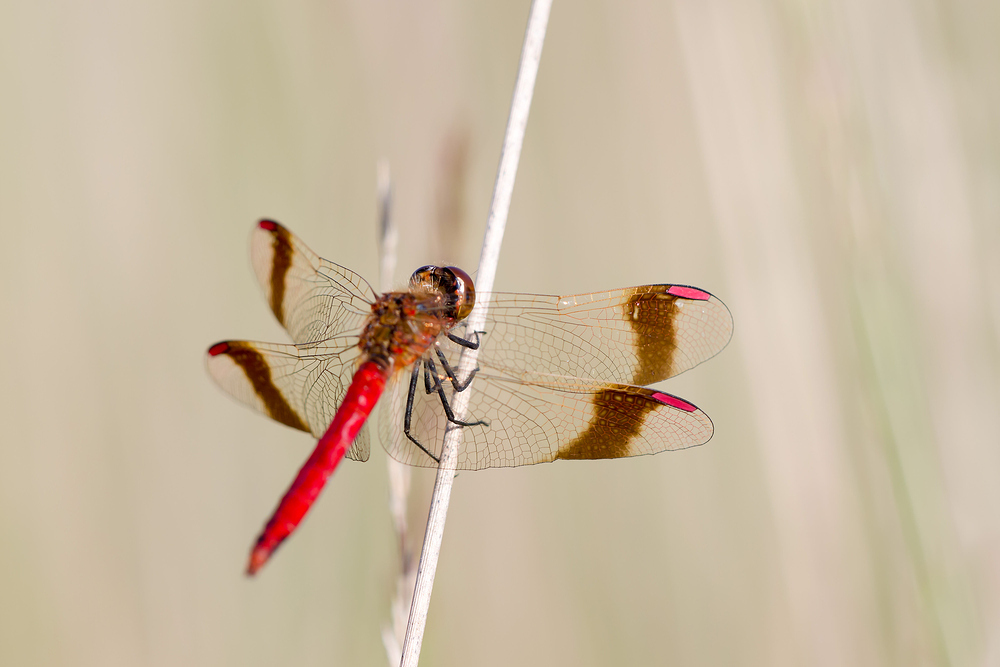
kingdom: Animalia
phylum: Arthropoda
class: Insecta
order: Odonata
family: Libellulidae
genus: Sympetrum
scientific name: Sympetrum pedemontanum
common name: Banded darter
